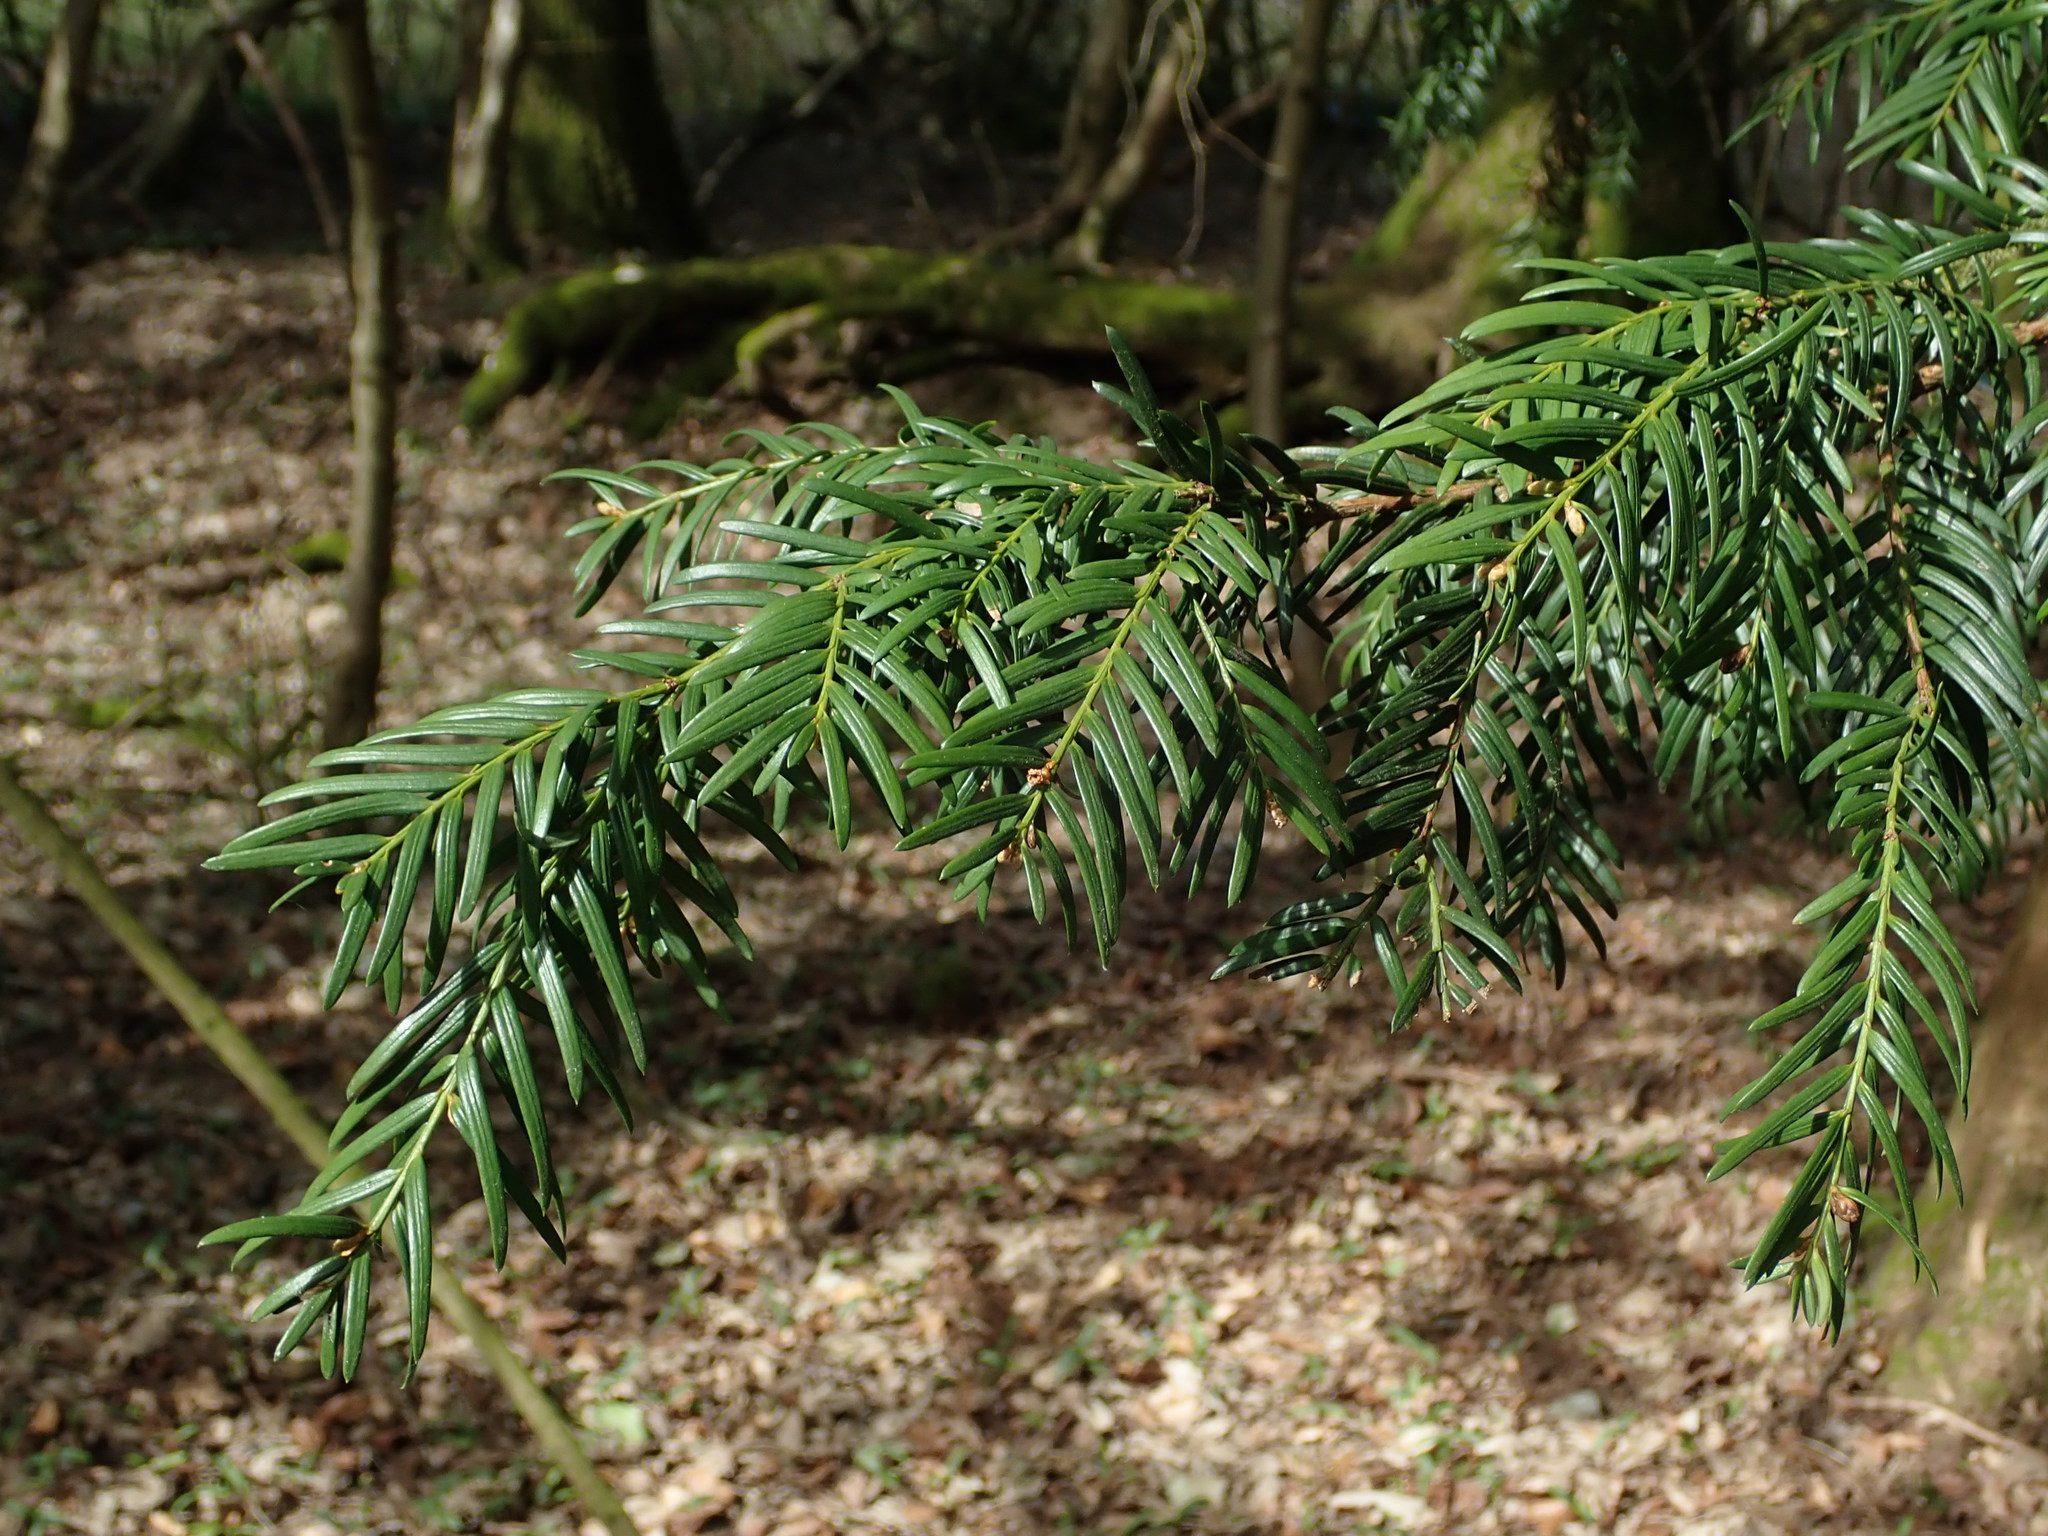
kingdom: Plantae
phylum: Tracheophyta
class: Pinopsida
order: Pinales
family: Taxaceae
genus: Taxus
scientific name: Taxus baccata
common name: Yew
